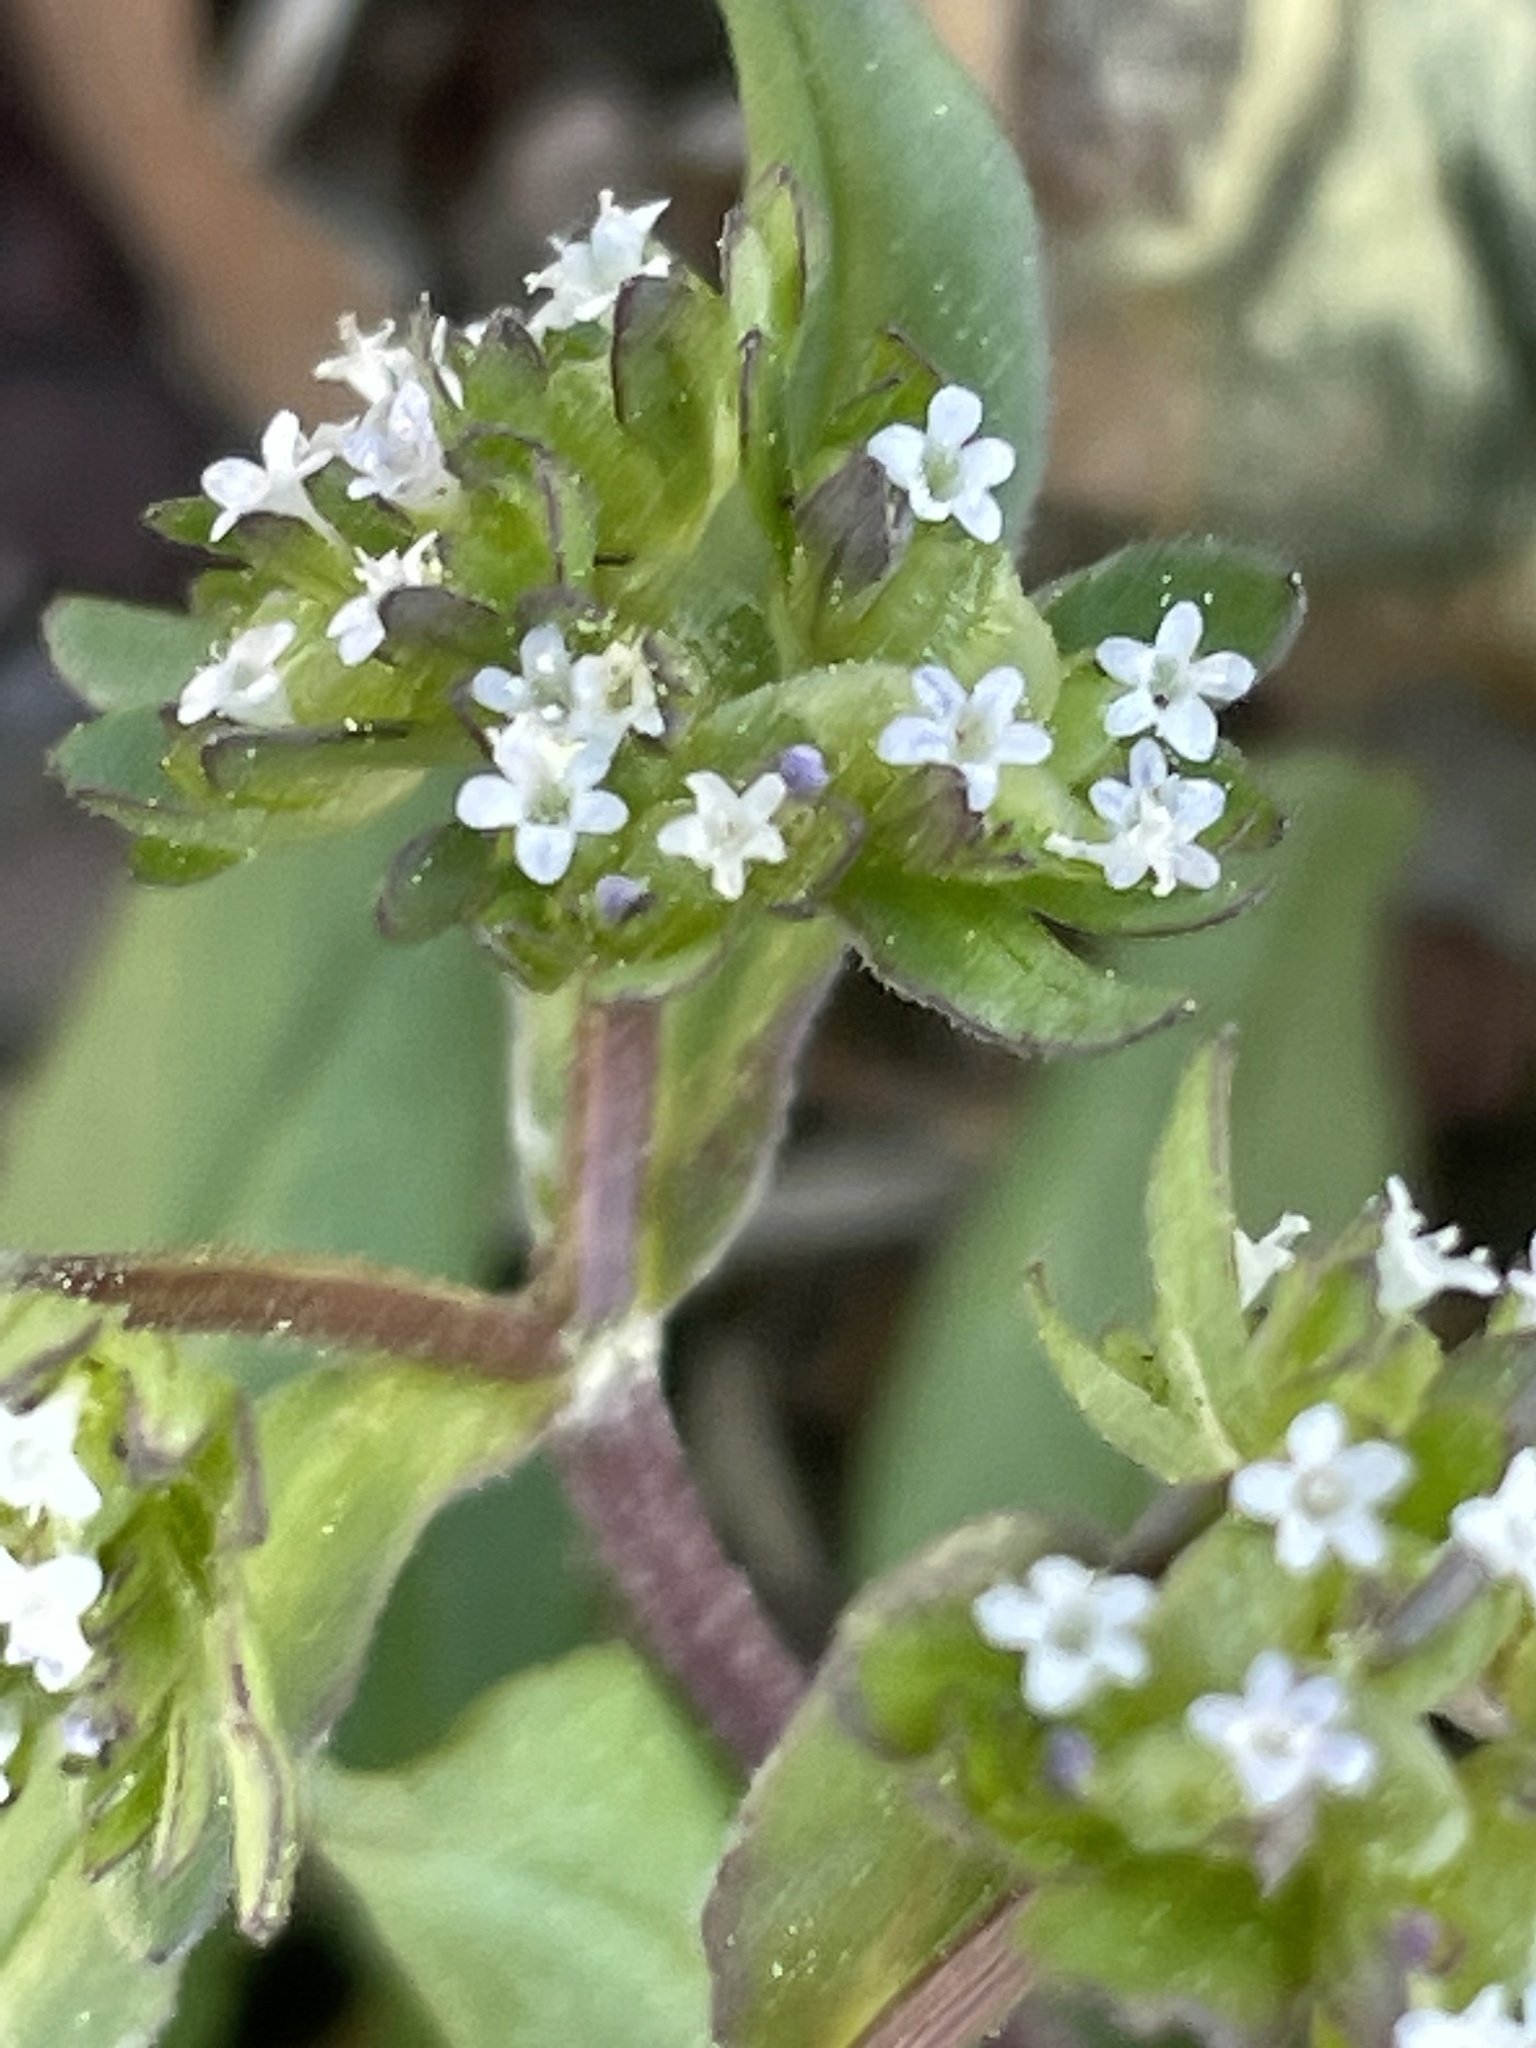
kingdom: Plantae
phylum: Tracheophyta
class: Magnoliopsida
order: Dipsacales
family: Caprifoliaceae
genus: Valerianella
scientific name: Valerianella locusta
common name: Common cornsalad
